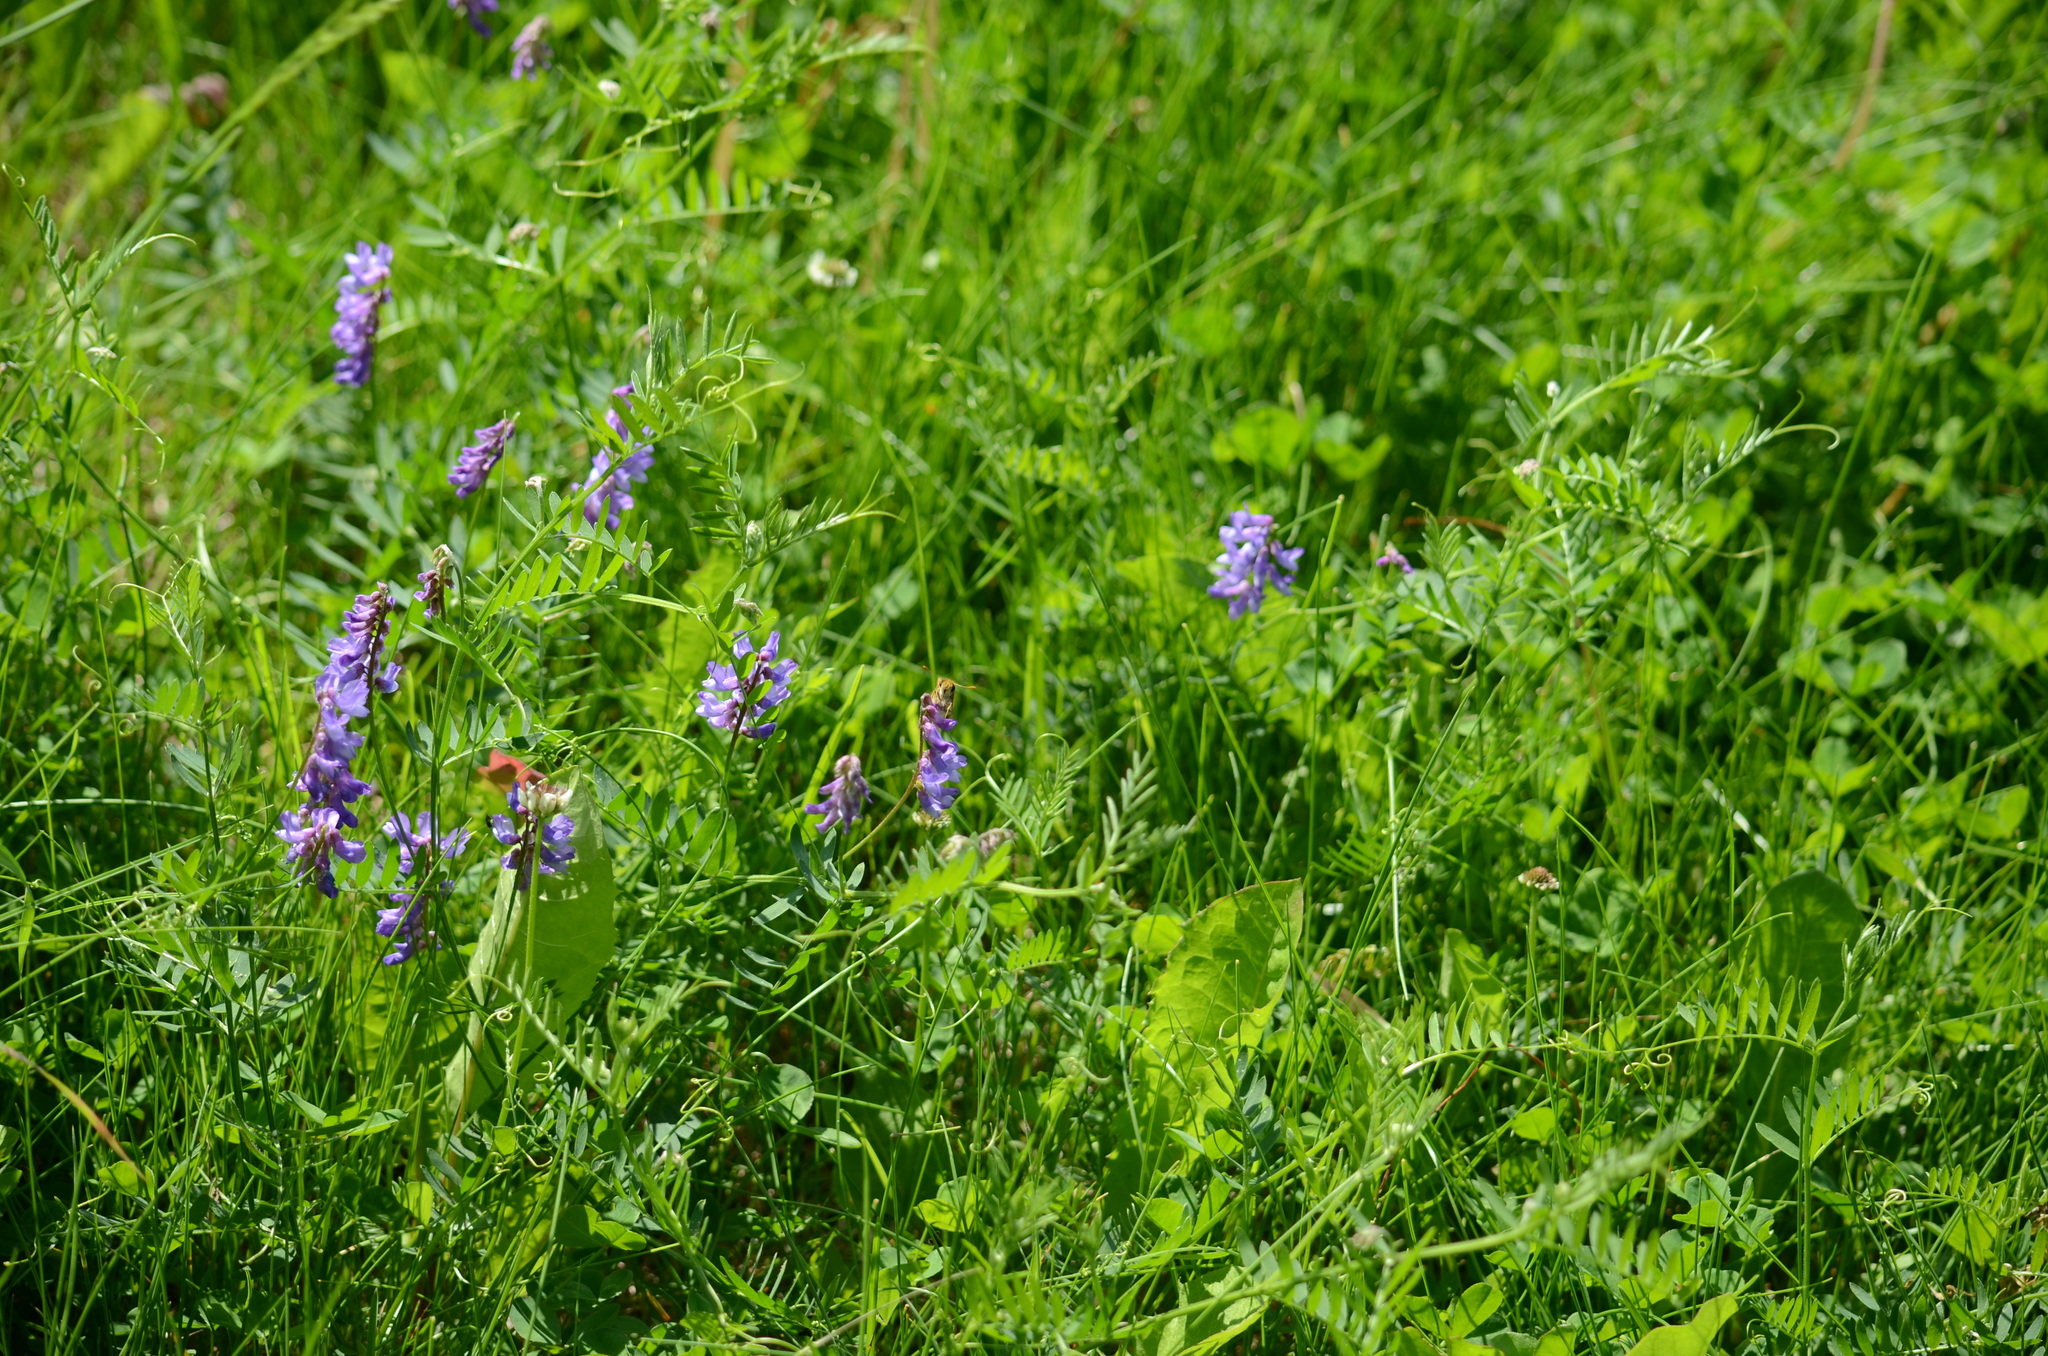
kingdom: Plantae
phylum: Tracheophyta
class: Magnoliopsida
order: Fabales
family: Fabaceae
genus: Vicia
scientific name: Vicia cracca
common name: Bird vetch
